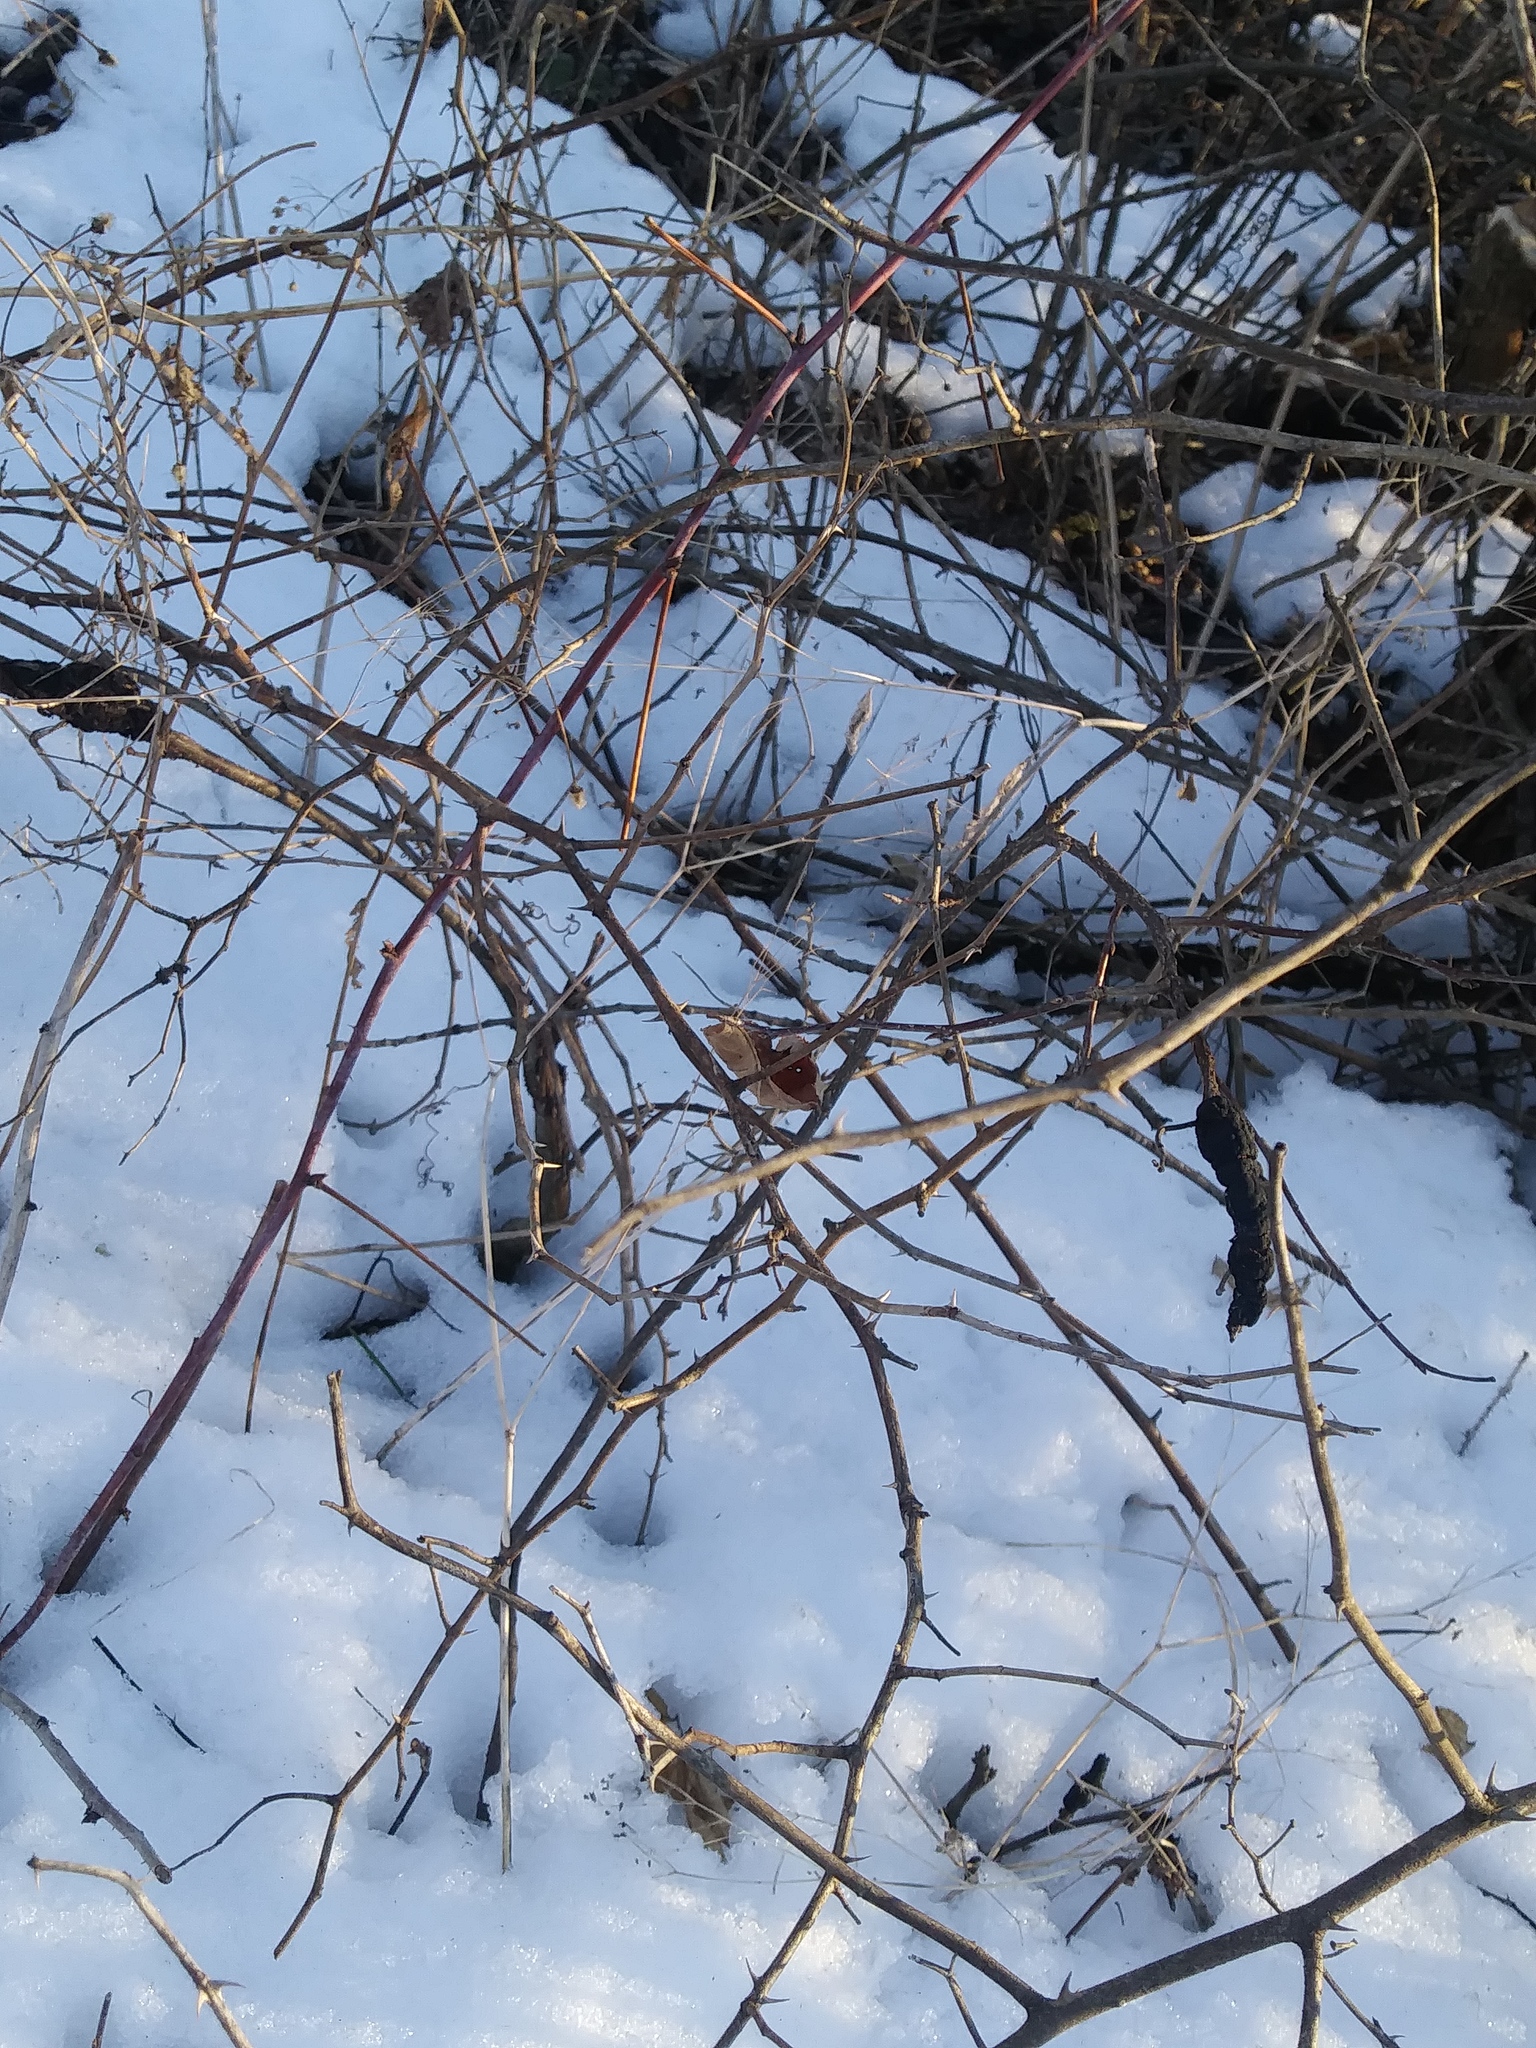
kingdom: Fungi
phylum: Ascomycota
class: Dothideomycetes
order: Venturiales
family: Venturiaceae
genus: Apiosporina
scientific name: Apiosporina morbosa
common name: Black knot
